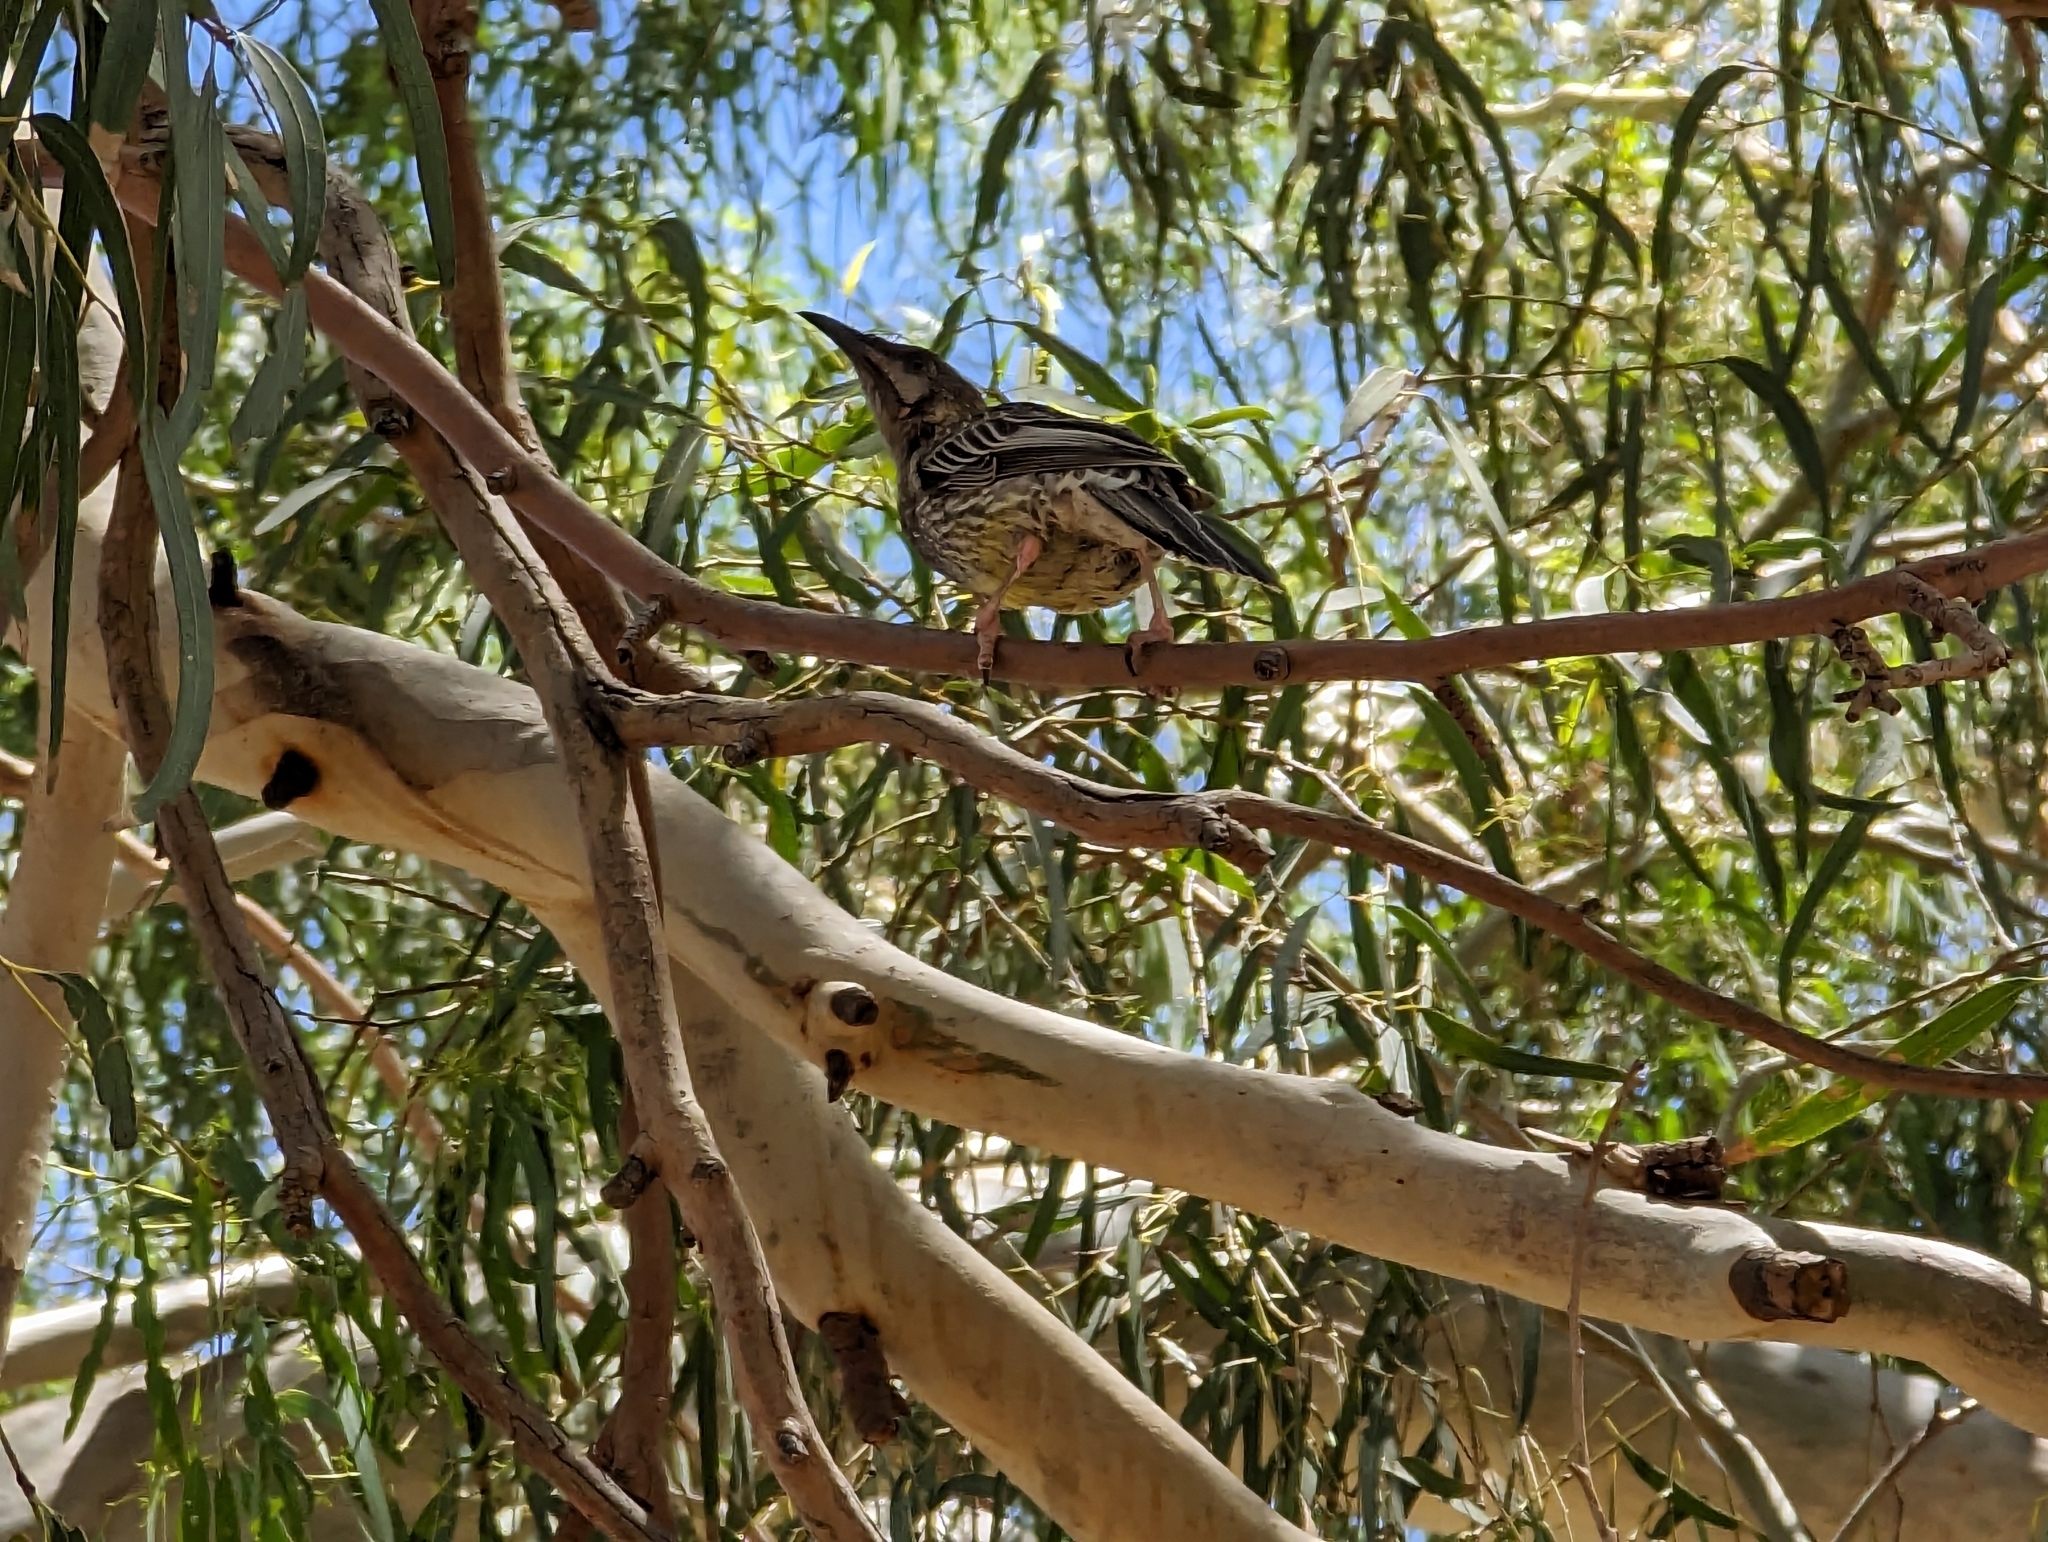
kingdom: Animalia
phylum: Chordata
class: Aves
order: Passeriformes
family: Meliphagidae
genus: Anthochaera
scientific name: Anthochaera carunculata
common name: Red wattlebird
